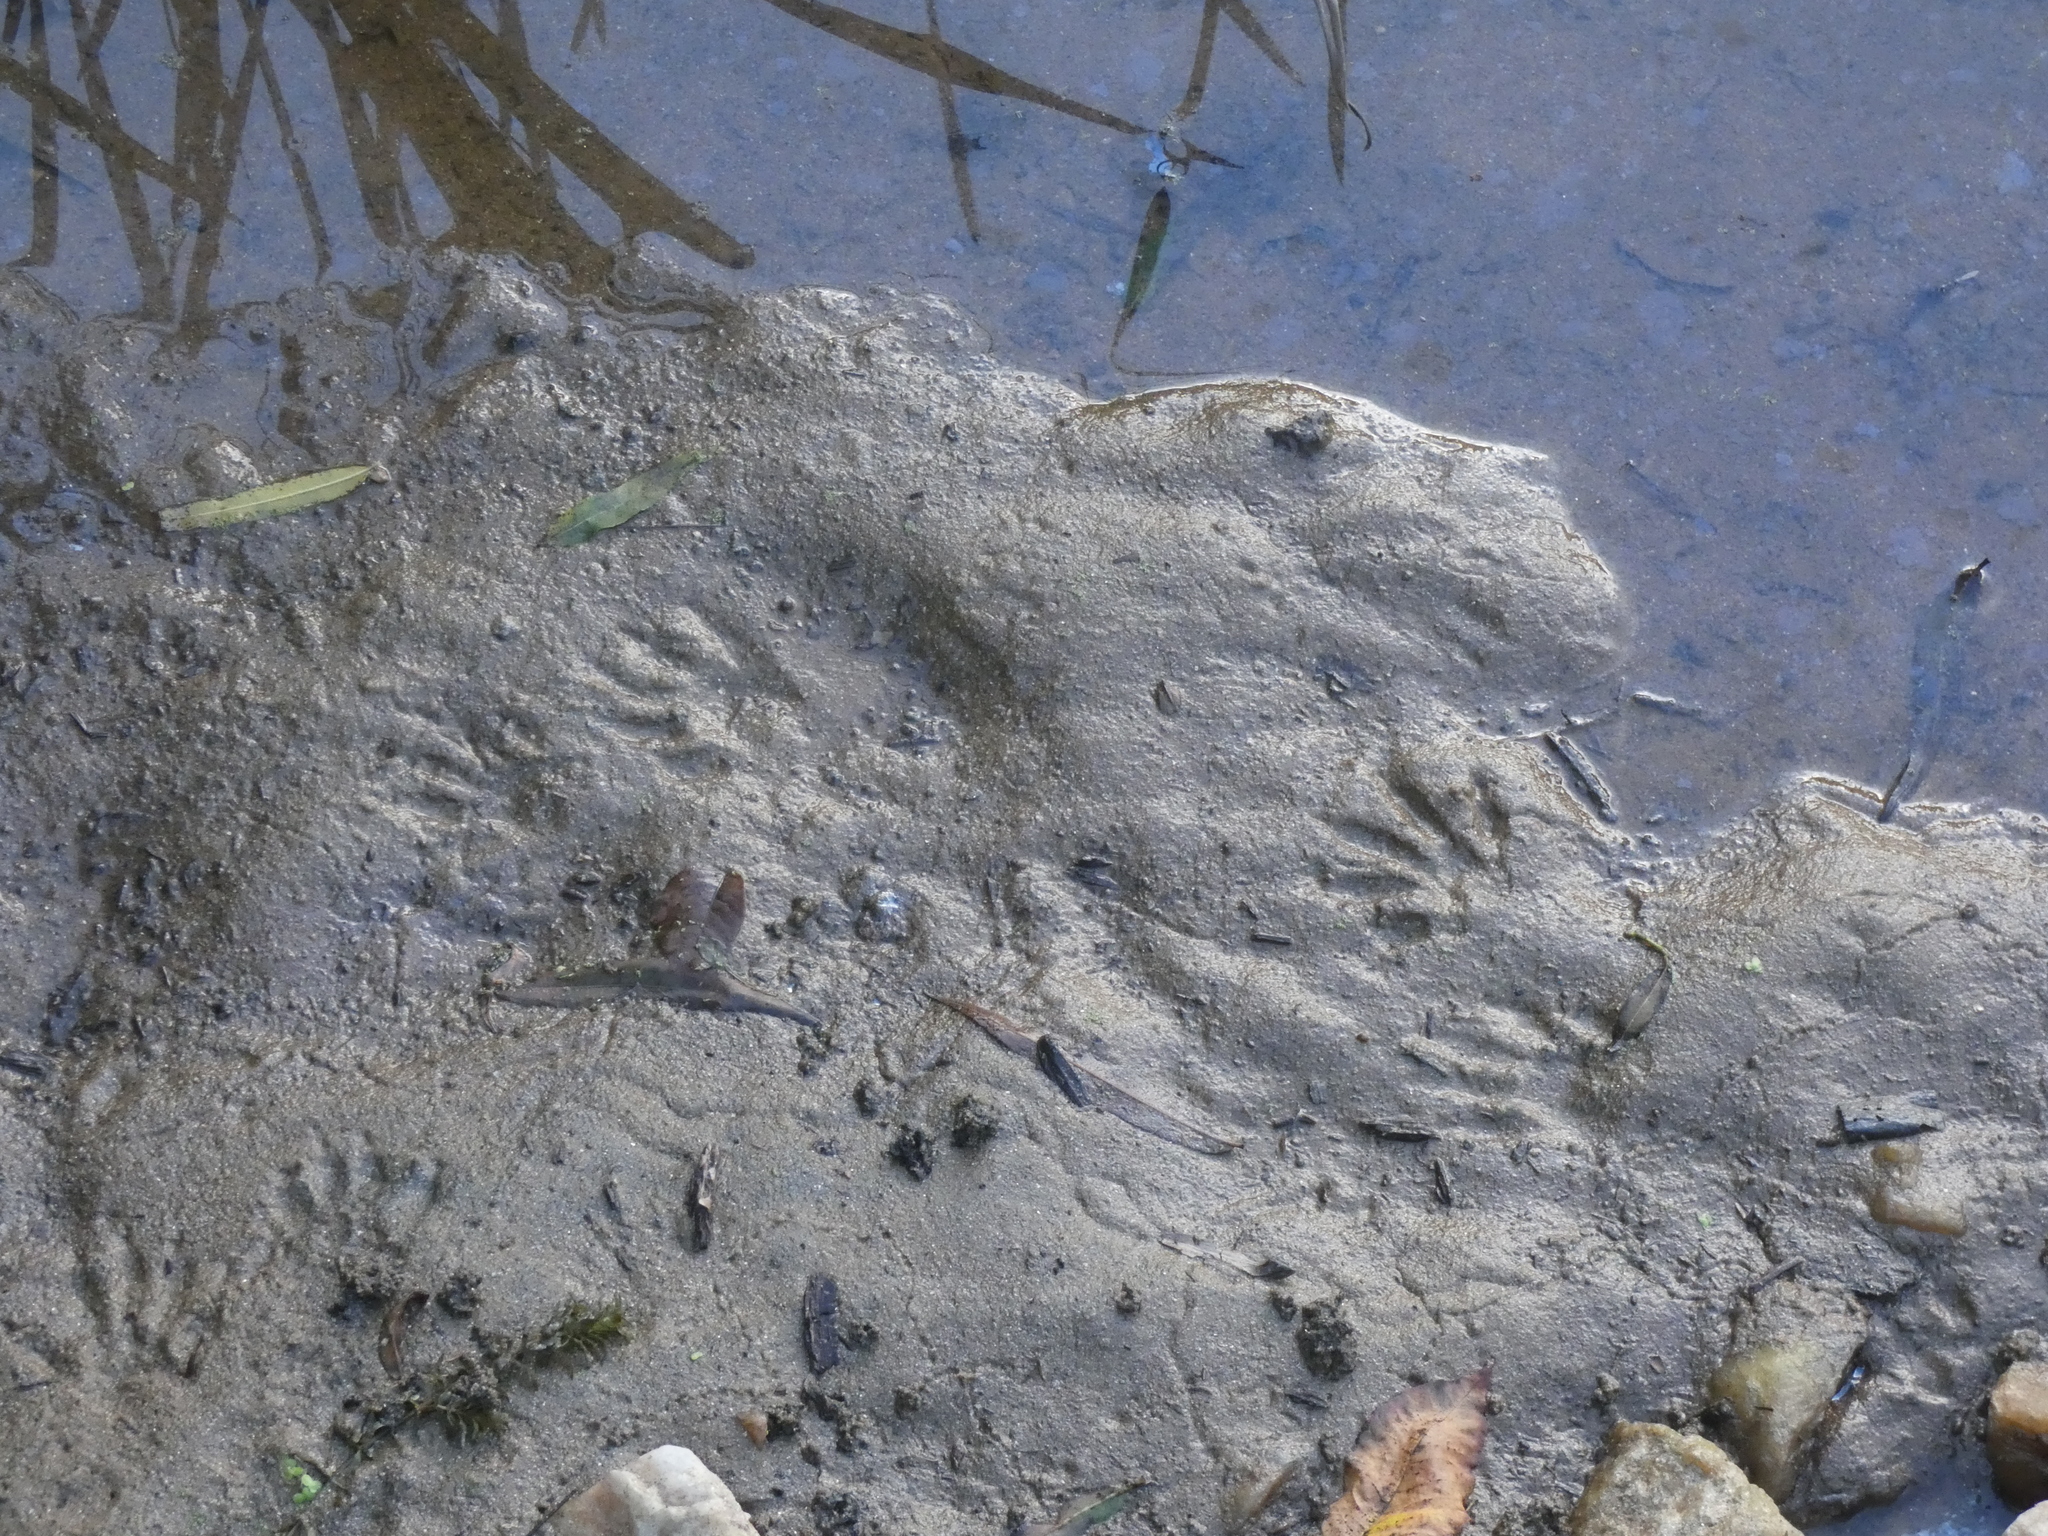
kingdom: Animalia
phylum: Chordata
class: Mammalia
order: Carnivora
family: Procyonidae
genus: Procyon
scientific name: Procyon lotor
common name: Raccoon
